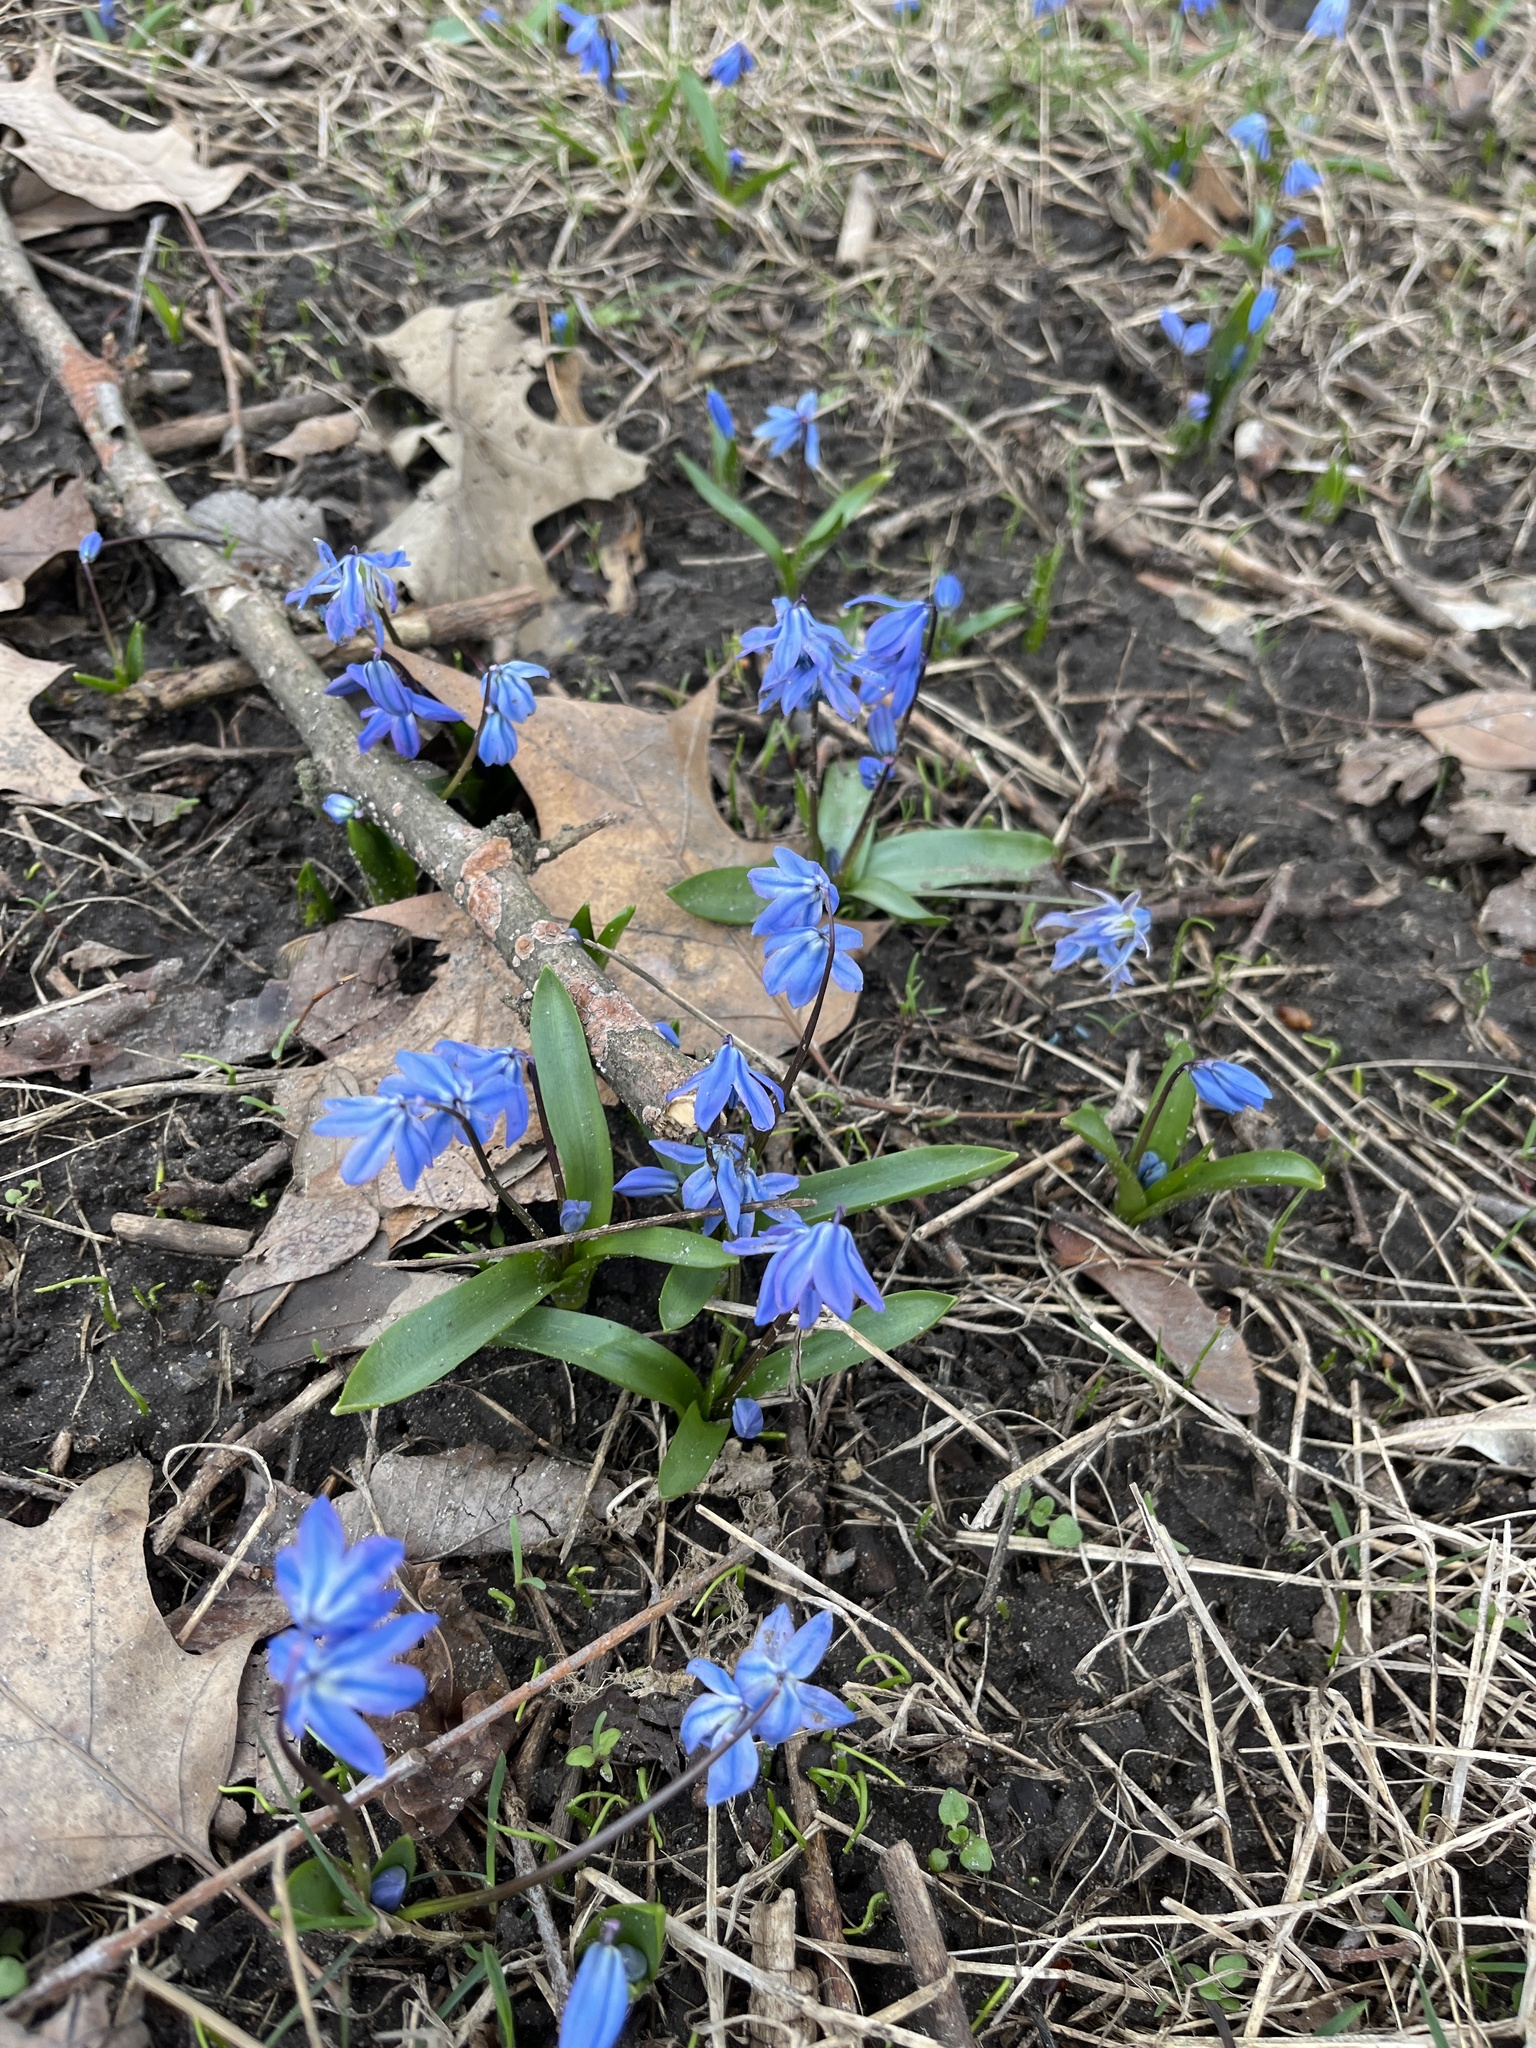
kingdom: Plantae
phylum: Tracheophyta
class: Liliopsida
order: Asparagales
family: Asparagaceae
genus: Scilla
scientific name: Scilla siberica
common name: Siberian squill
